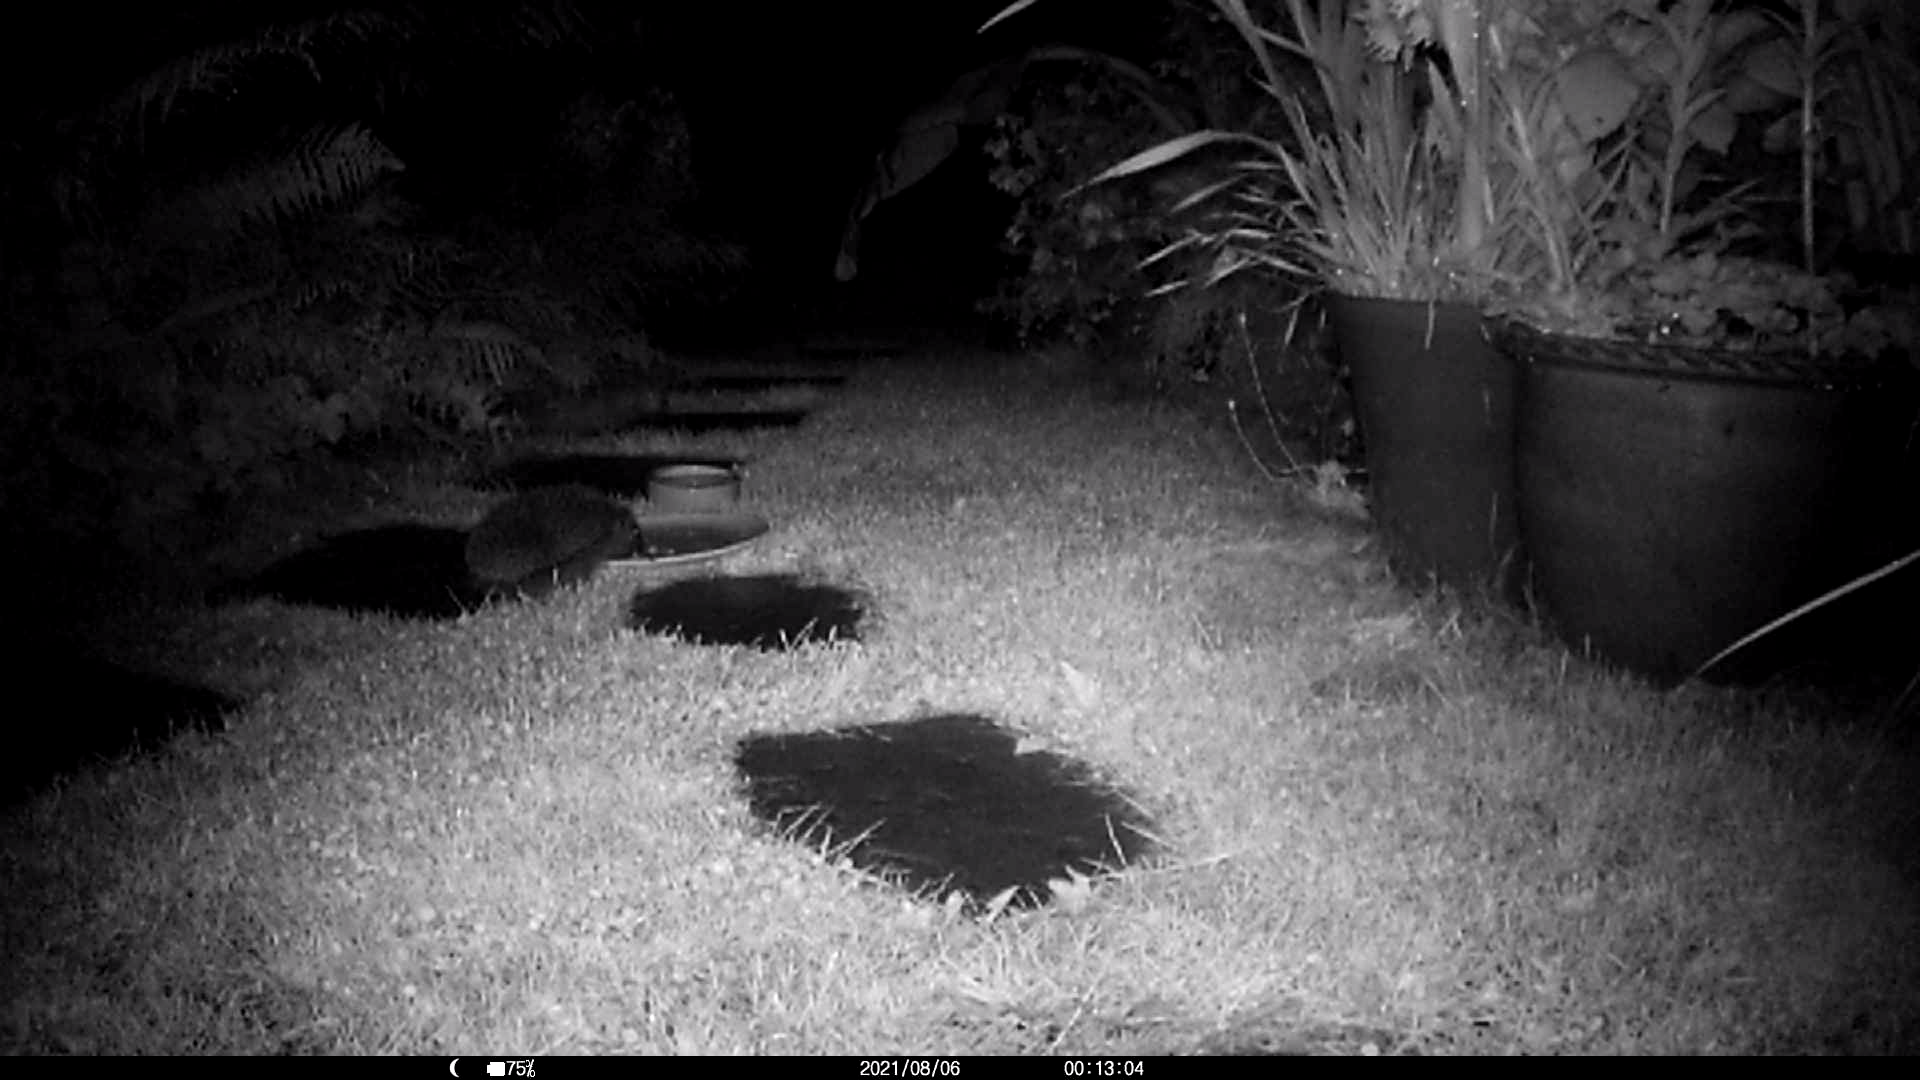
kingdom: Animalia
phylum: Chordata
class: Mammalia
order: Erinaceomorpha
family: Erinaceidae
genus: Erinaceus
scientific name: Erinaceus europaeus
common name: West european hedgehog
